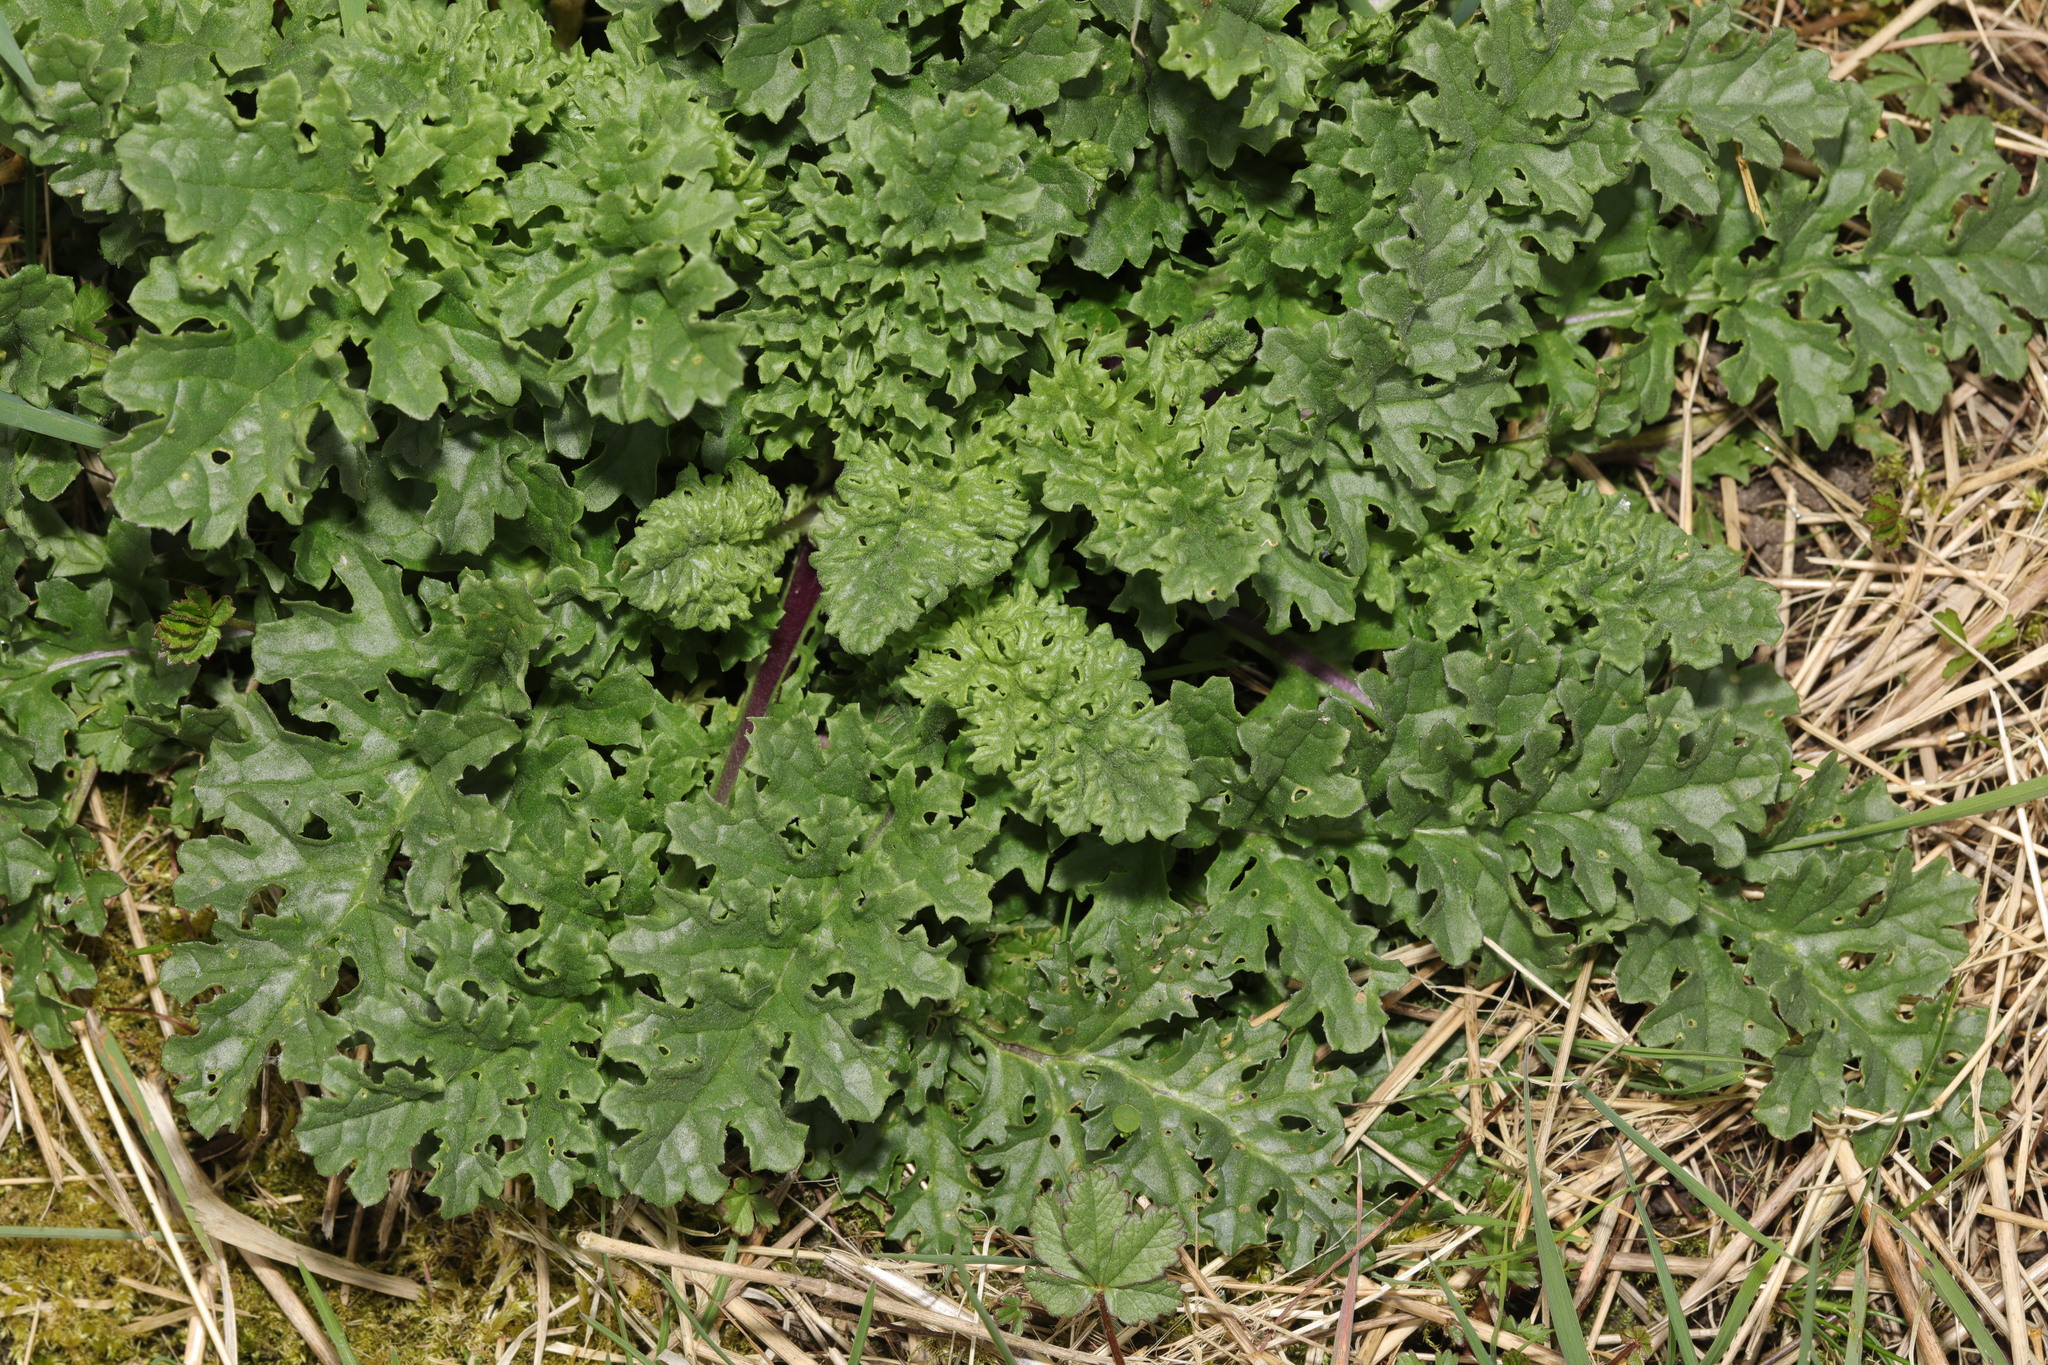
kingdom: Plantae
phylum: Tracheophyta
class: Magnoliopsida
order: Asterales
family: Asteraceae
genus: Jacobaea
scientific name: Jacobaea vulgaris
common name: Stinking willie
